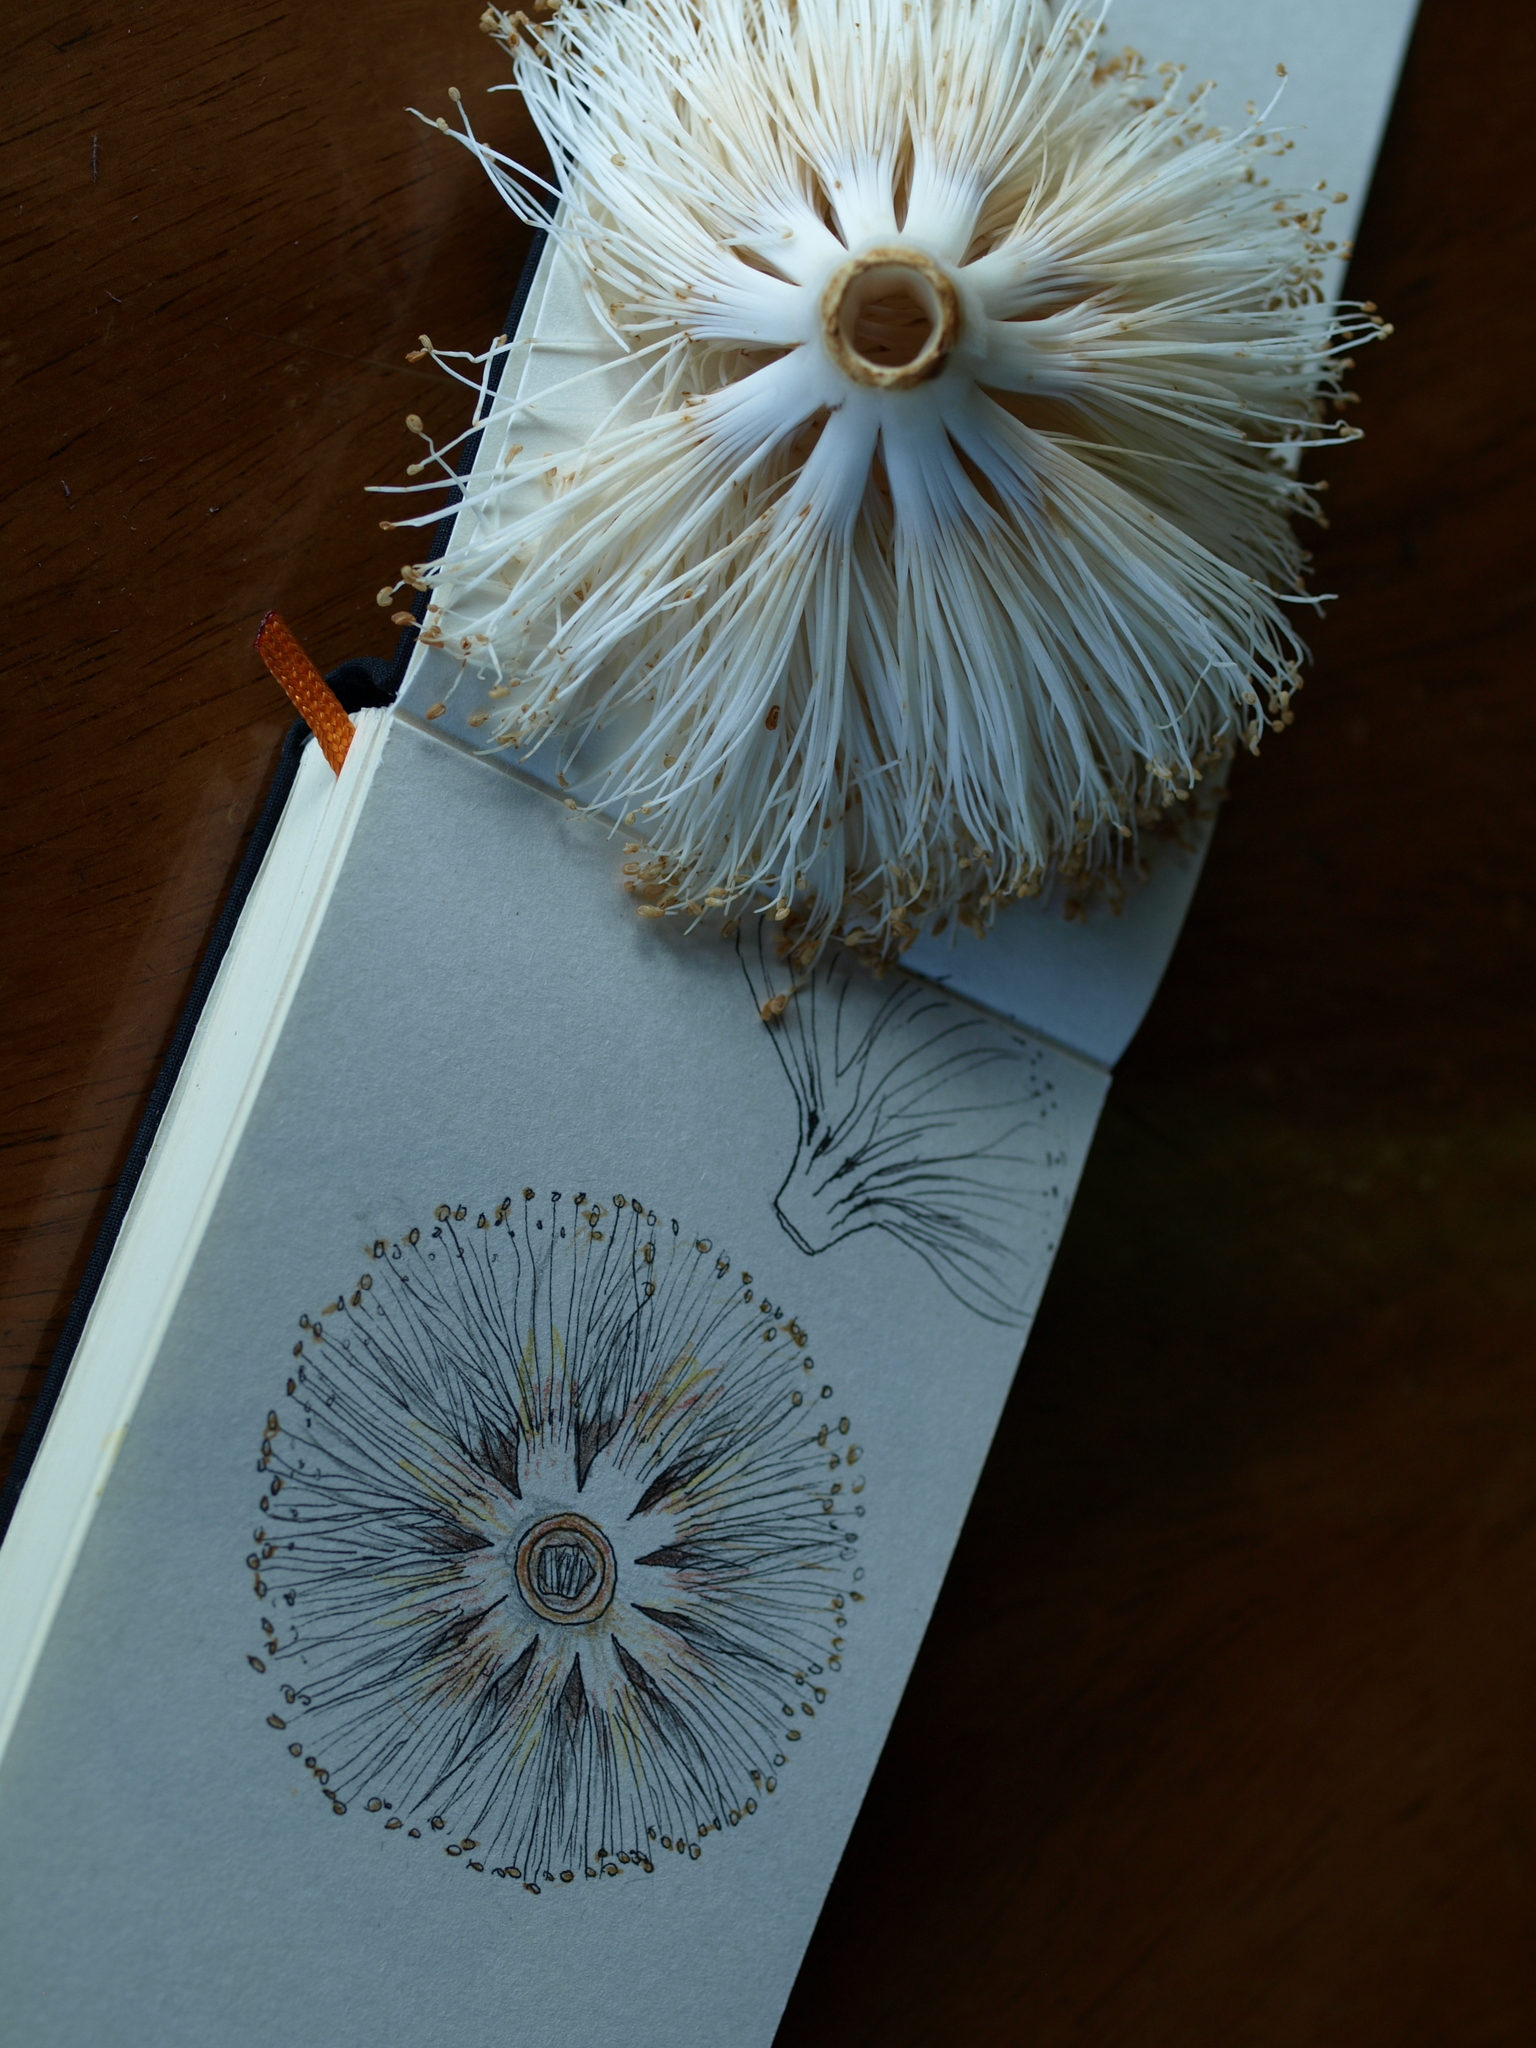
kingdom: Plantae
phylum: Tracheophyta
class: Magnoliopsida
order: Malvales
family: Malvaceae
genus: Pseudobombax
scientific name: Pseudobombax septenatum
